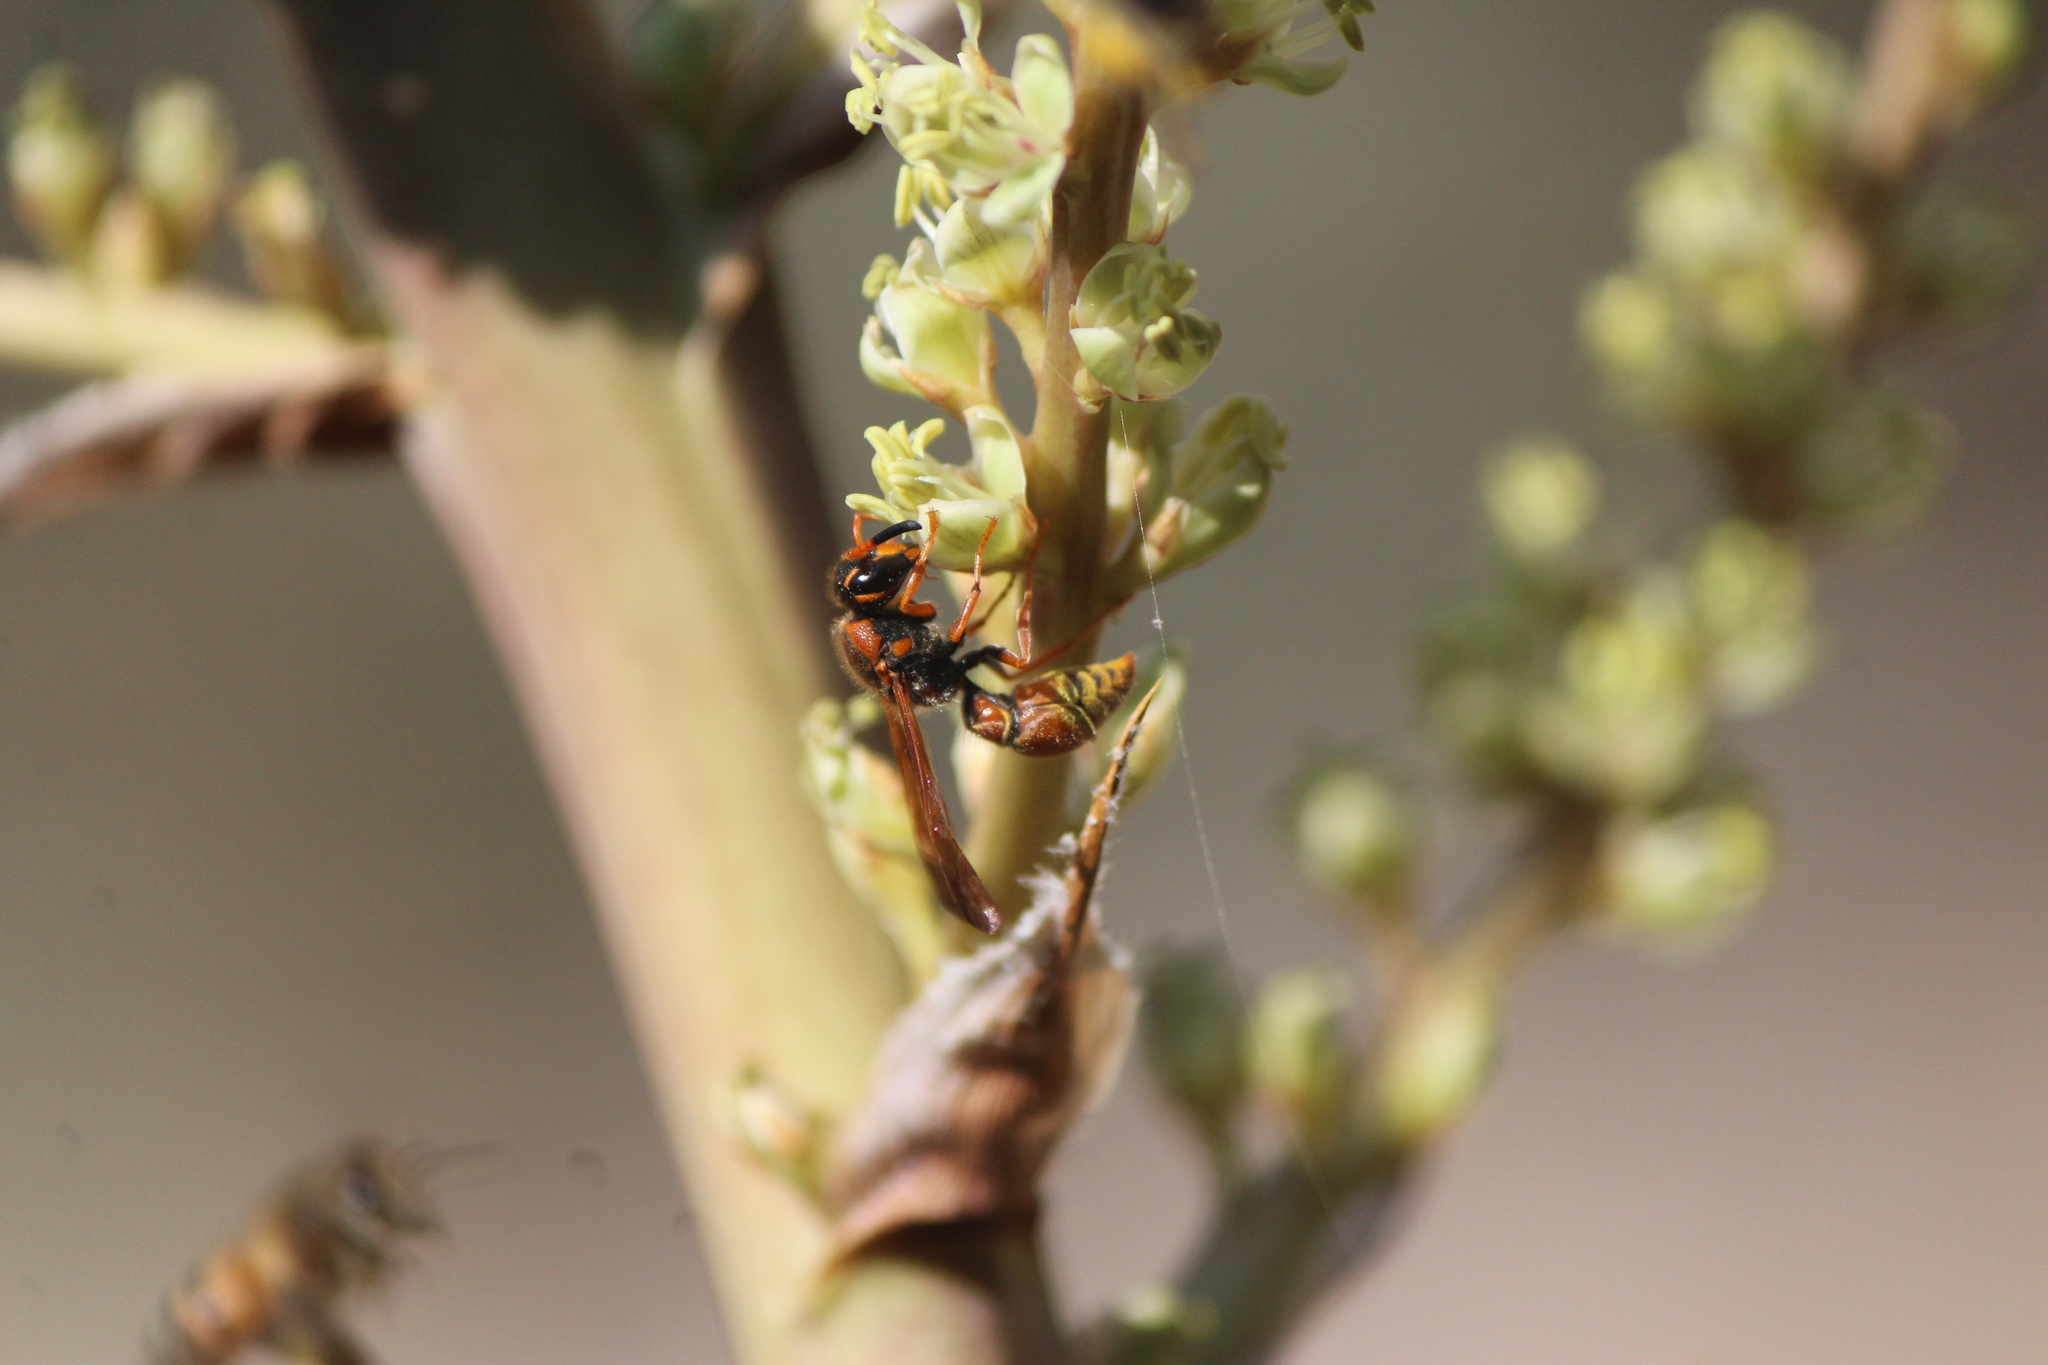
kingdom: Animalia
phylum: Arthropoda
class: Insecta
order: Hymenoptera
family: Vespidae
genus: Ancistrocerus
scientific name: Ancistrocerus tuberculocephalus
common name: Vespid wasp
